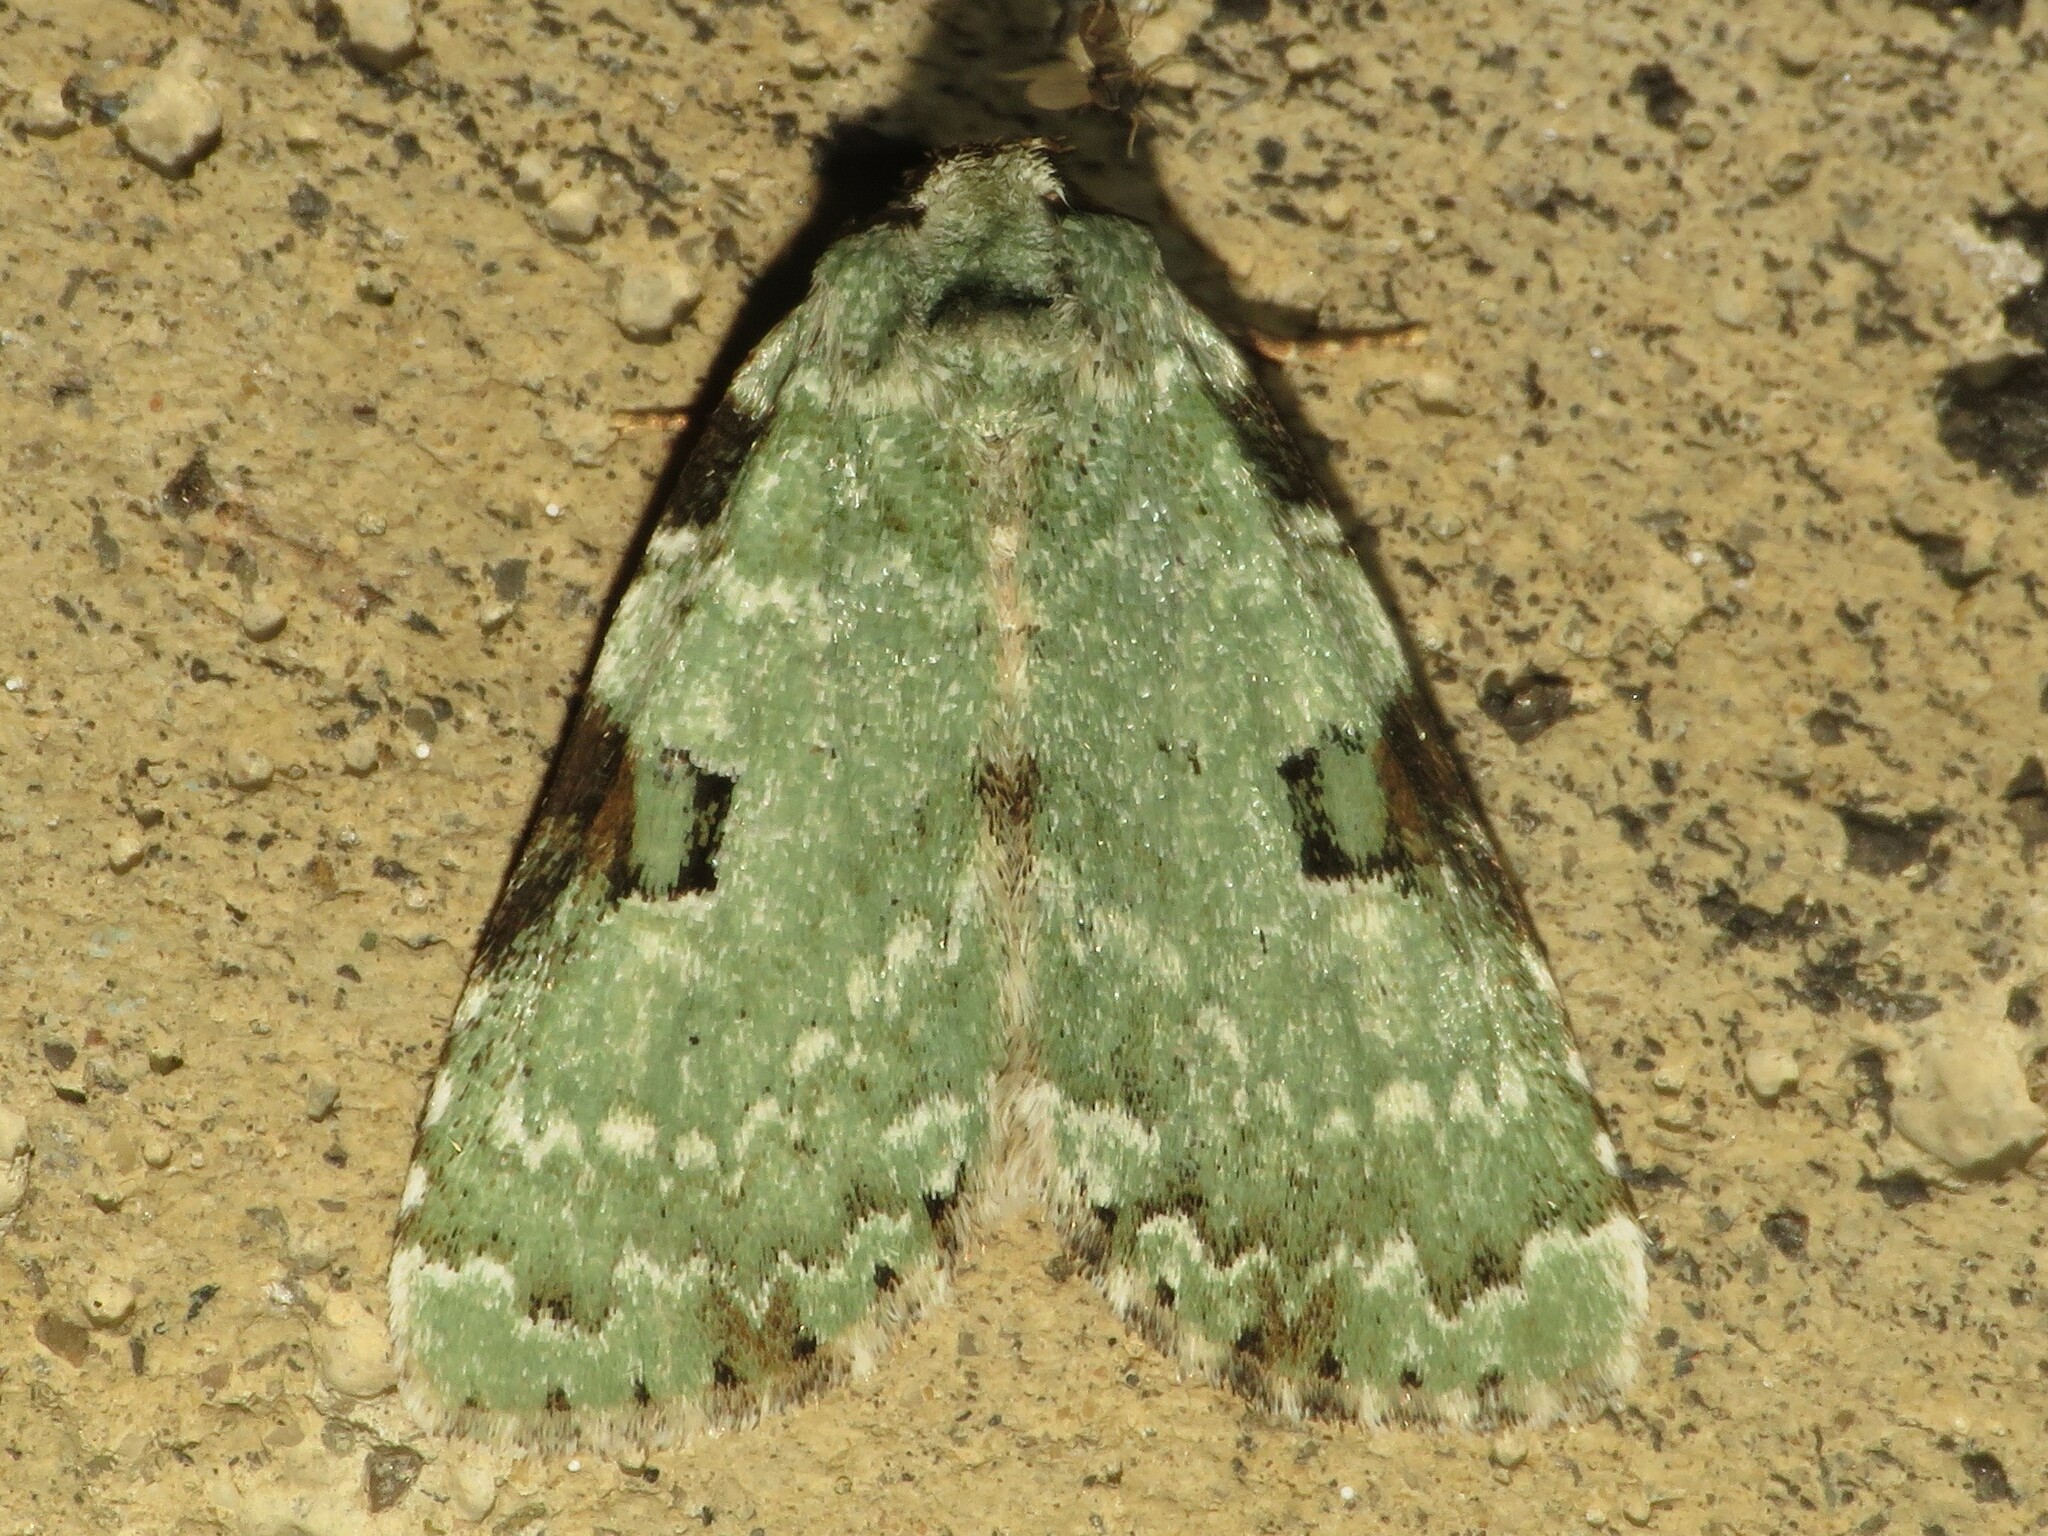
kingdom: Animalia
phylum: Arthropoda
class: Insecta
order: Lepidoptera
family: Noctuidae
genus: Leuconycta
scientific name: Leuconycta diphteroides
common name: Green leuconycta moth
